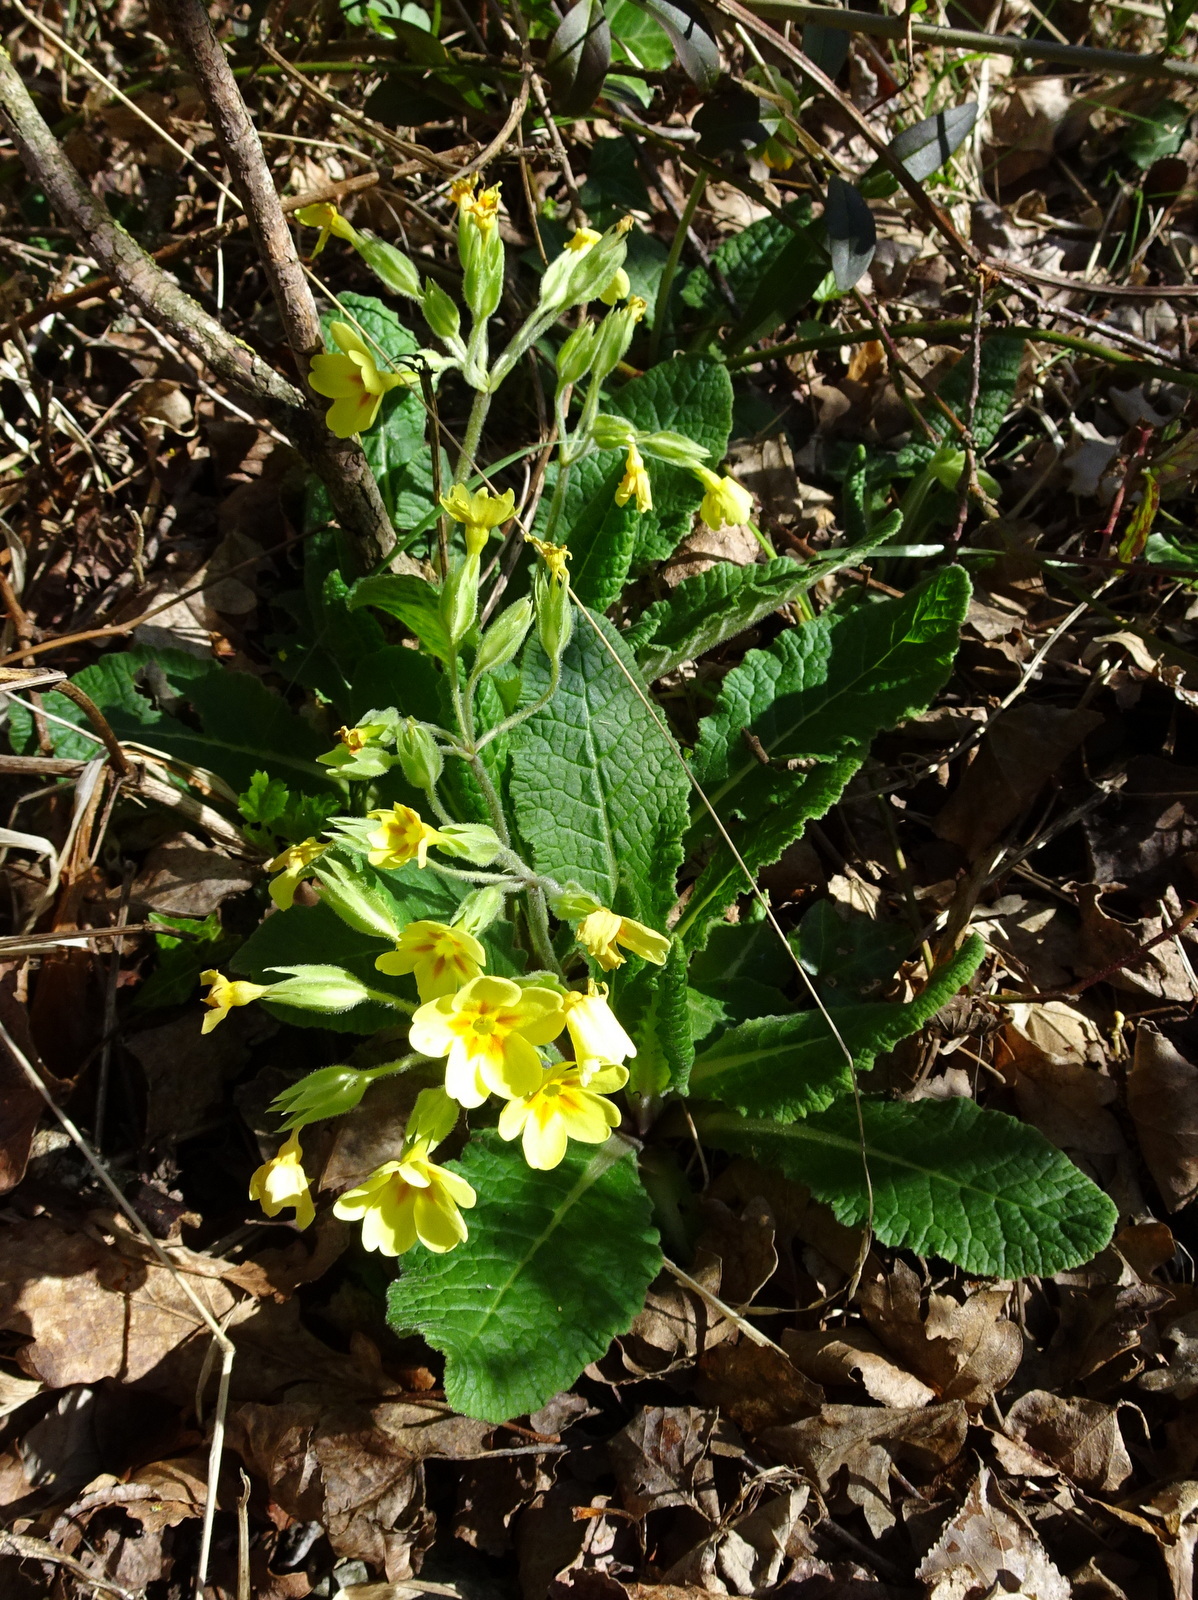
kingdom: Plantae
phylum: Tracheophyta
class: Magnoliopsida
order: Ericales
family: Primulaceae
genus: Primula
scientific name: Primula elatior
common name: Oxlip
